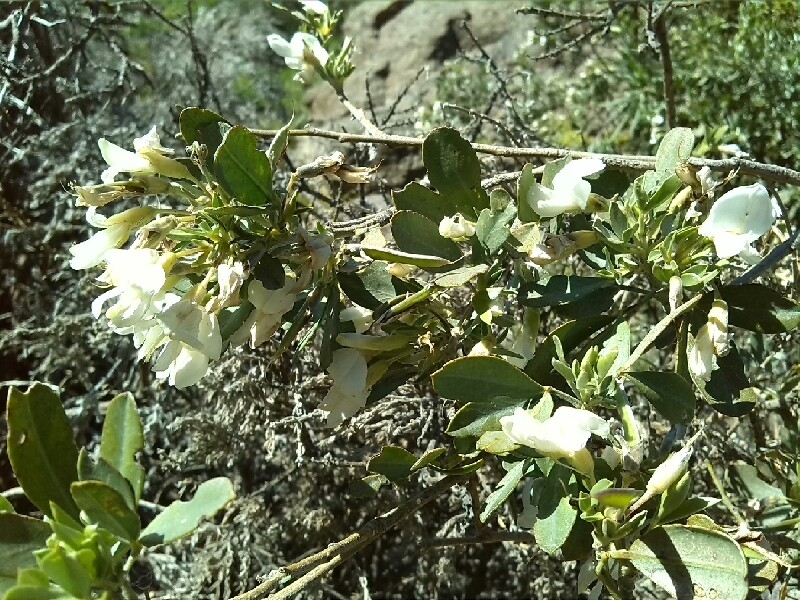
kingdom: Plantae
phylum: Tracheophyta
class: Magnoliopsida
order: Fabales
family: Fabaceae
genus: Chamaecytisus
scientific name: Chamaecytisus prolifer
